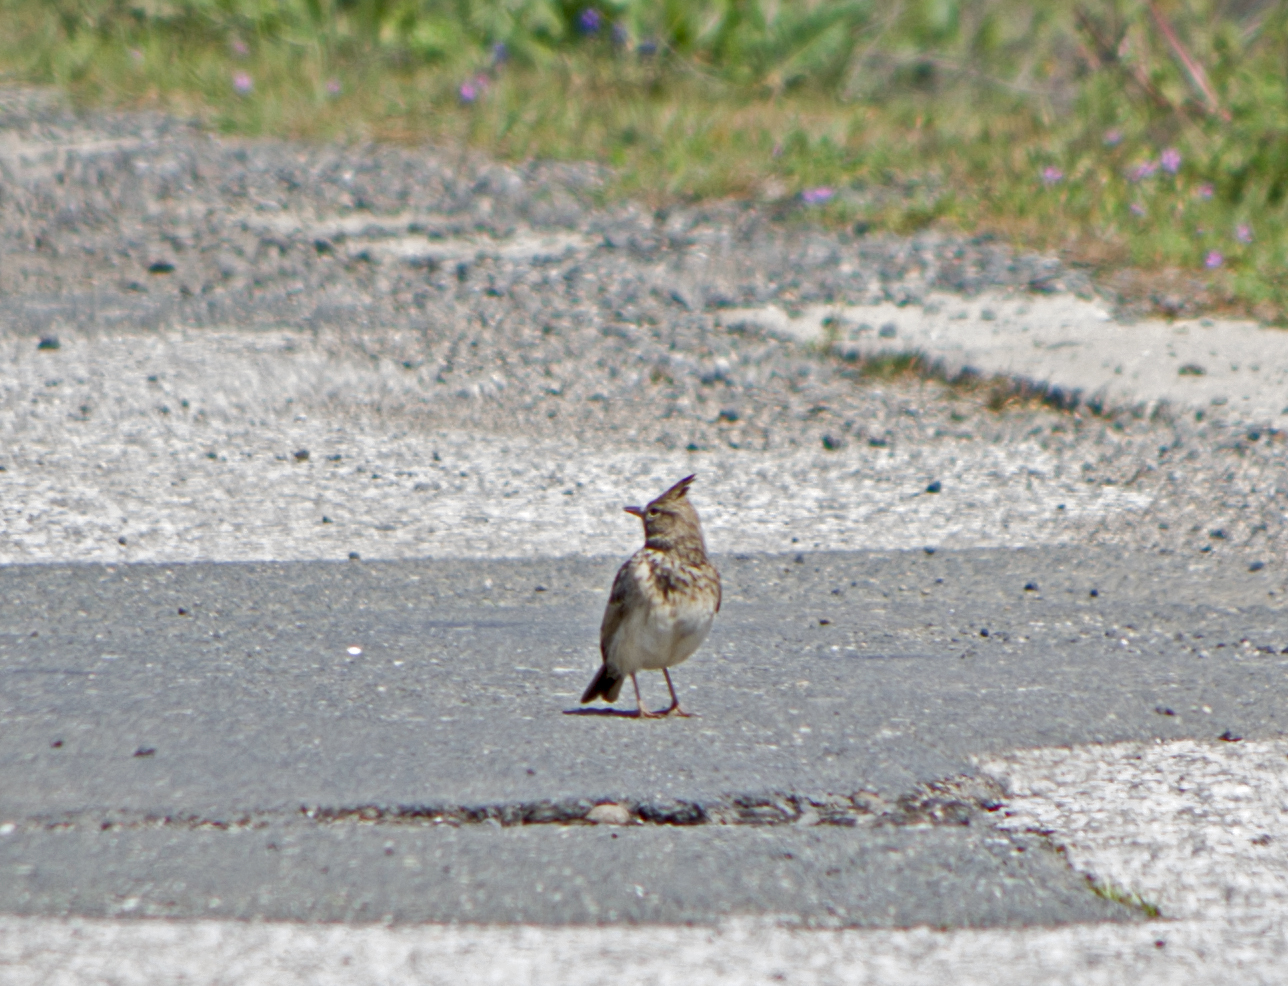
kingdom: Animalia
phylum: Chordata
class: Aves
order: Passeriformes
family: Alaudidae
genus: Galerida
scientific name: Galerida cristata
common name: Crested lark
